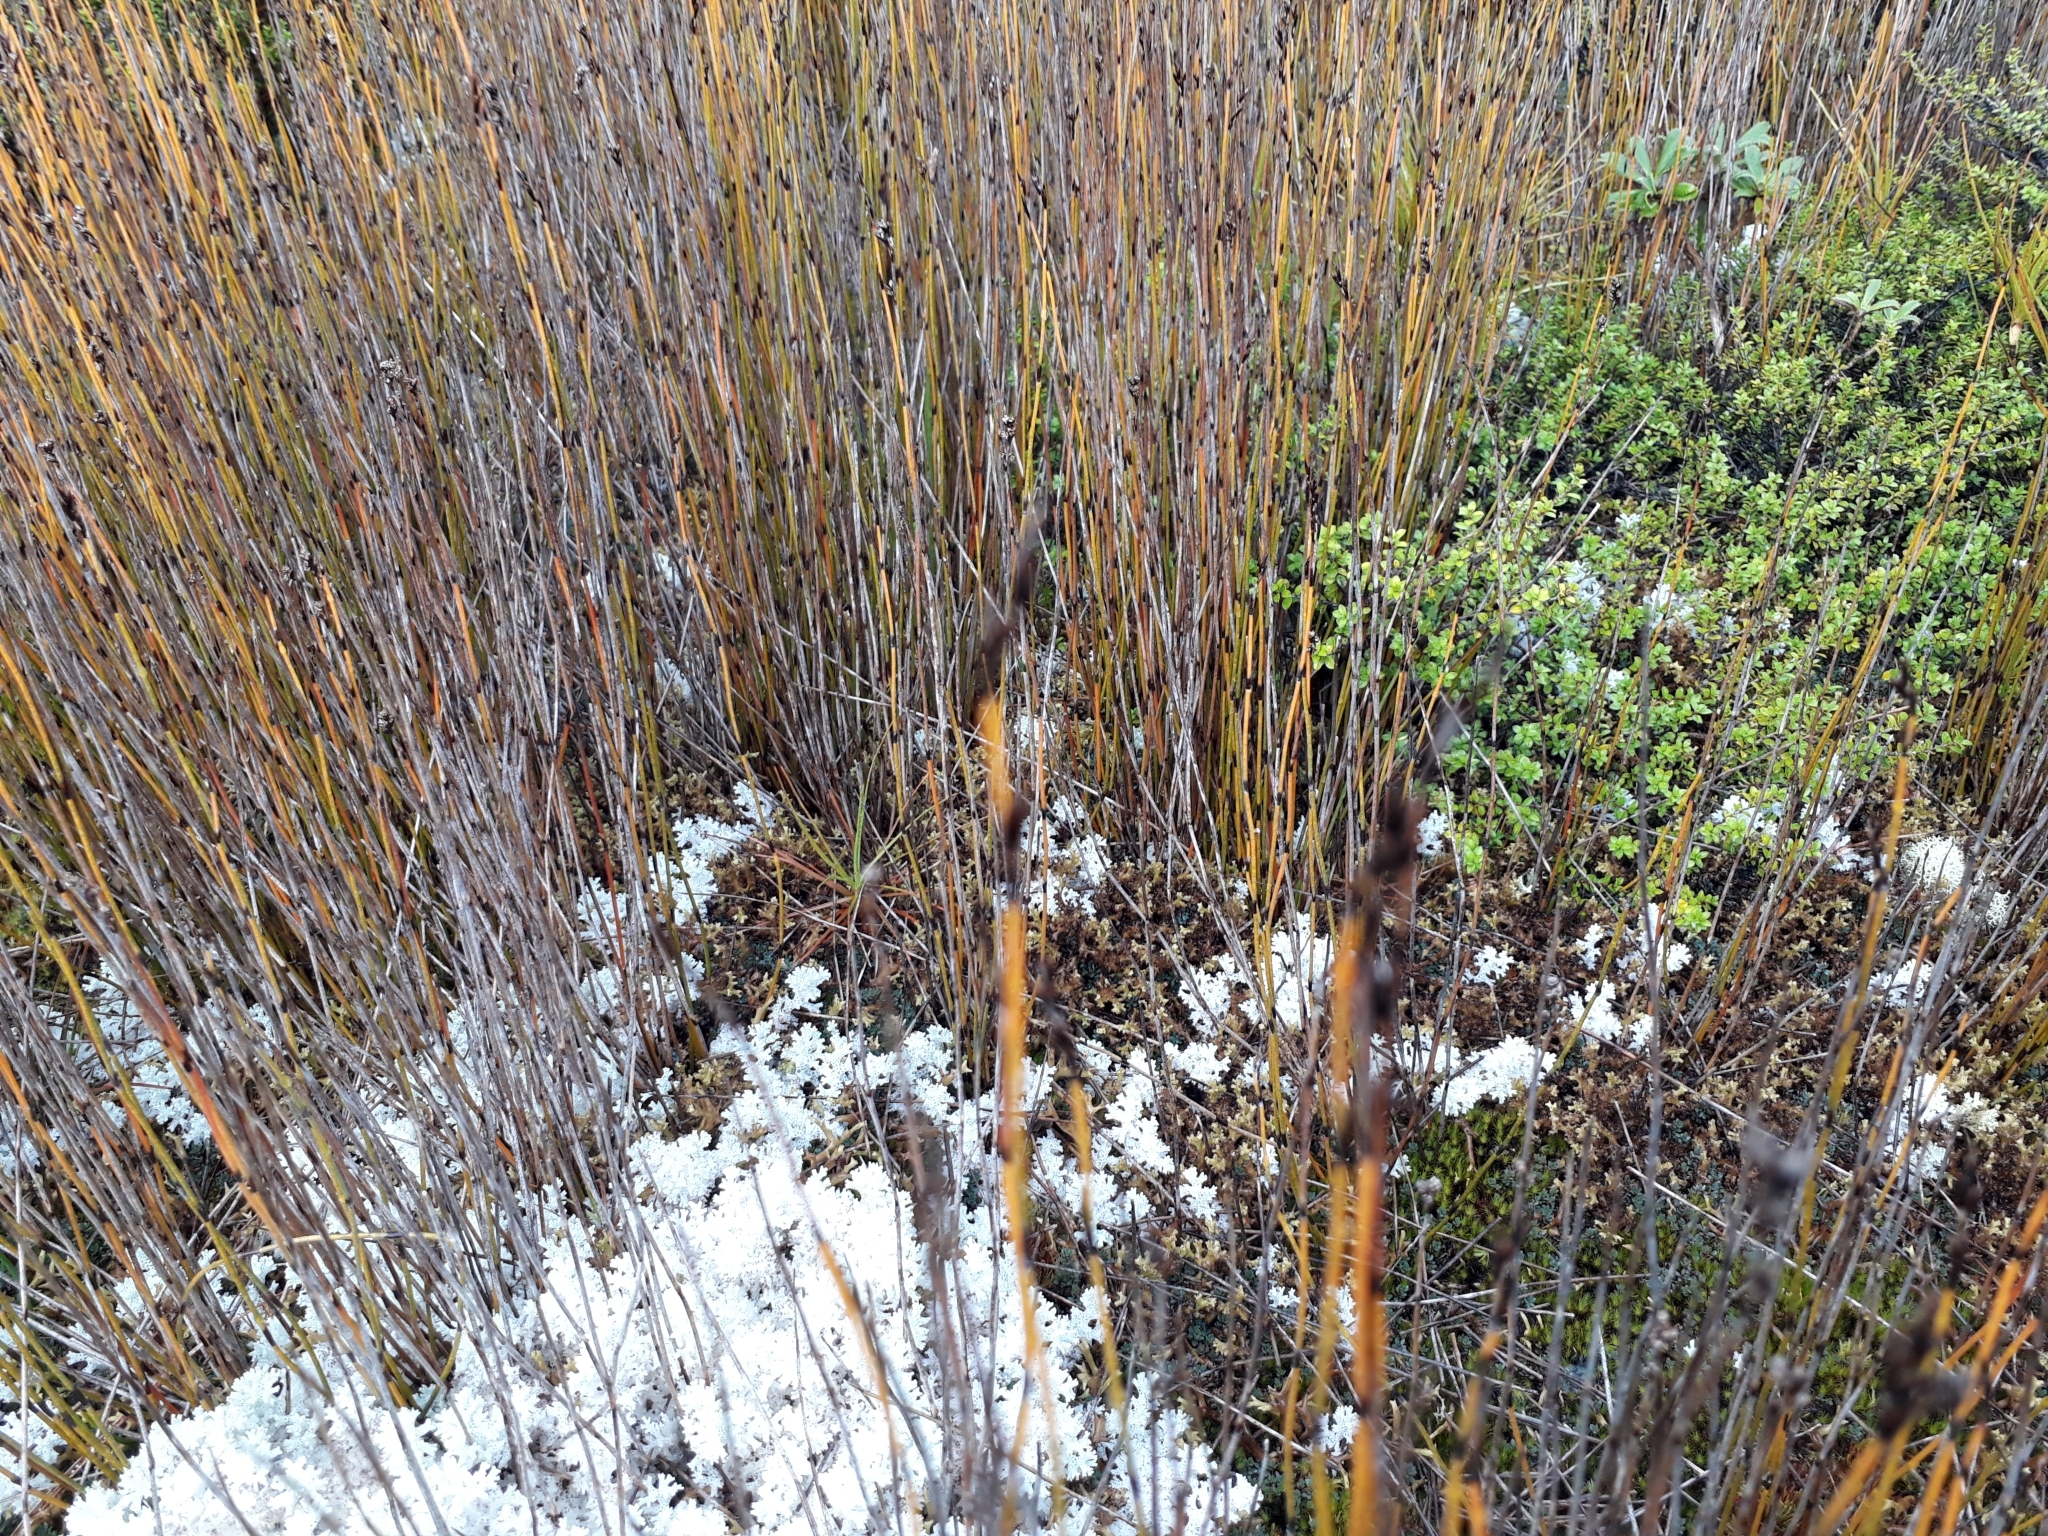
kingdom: Plantae
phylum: Tracheophyta
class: Liliopsida
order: Poales
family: Restionaceae
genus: Apodasmia
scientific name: Apodasmia similis
